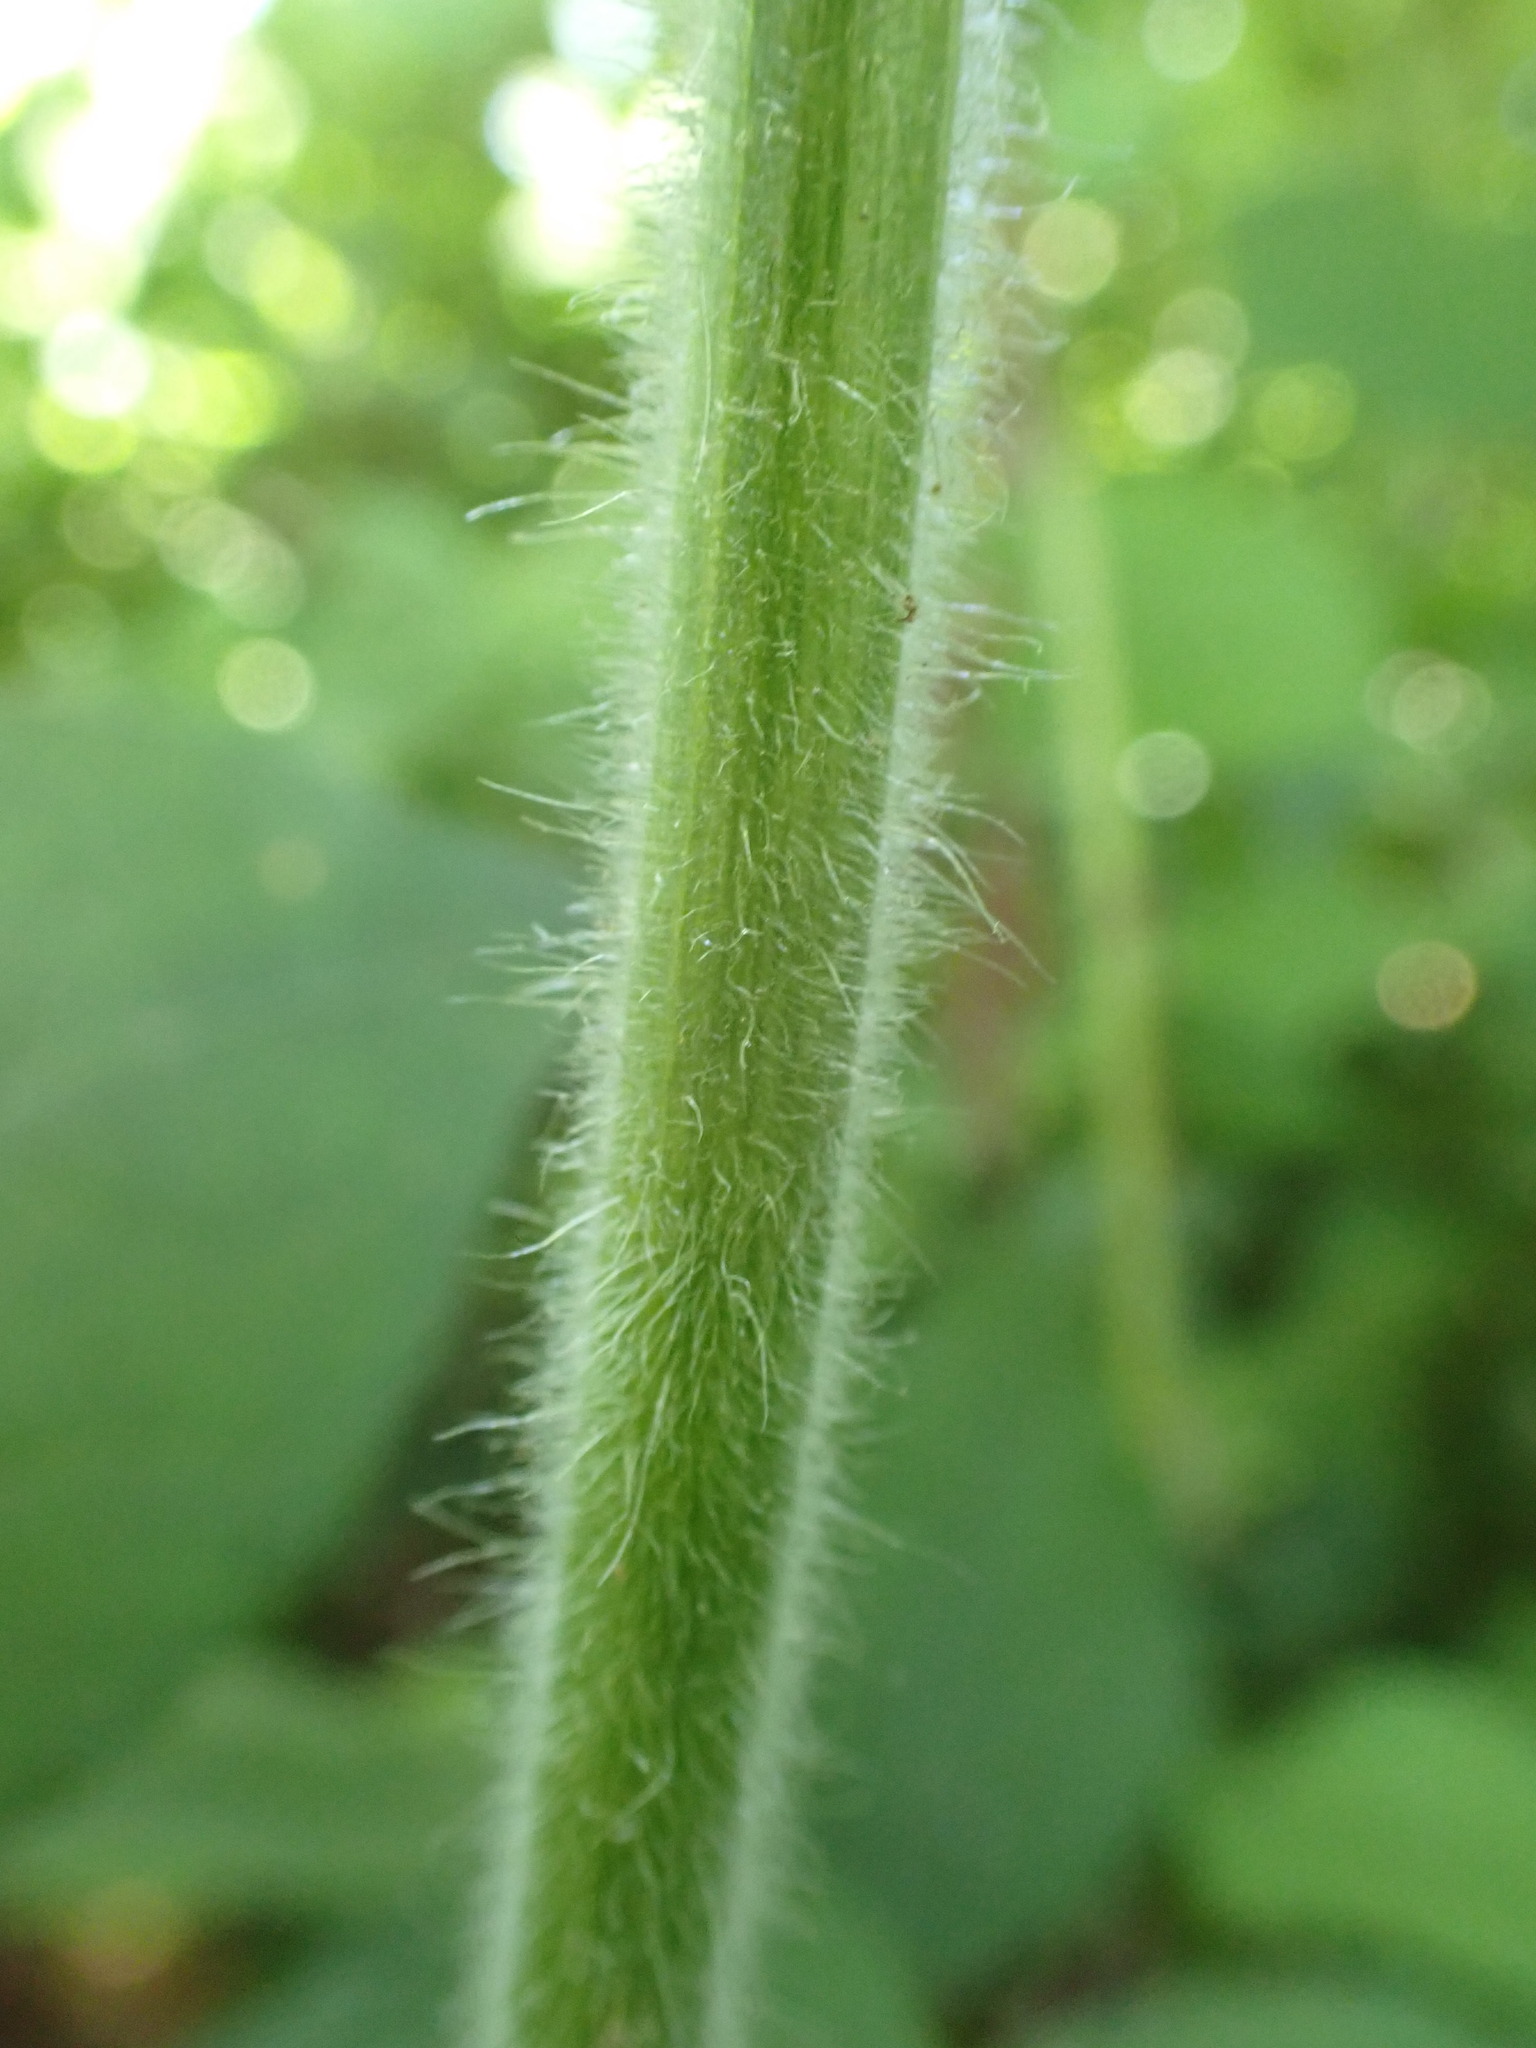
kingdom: Plantae
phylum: Tracheophyta
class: Magnoliopsida
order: Solanales
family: Solanaceae
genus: Physalis
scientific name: Physalis heterophylla
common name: Clammy ground-cherry
